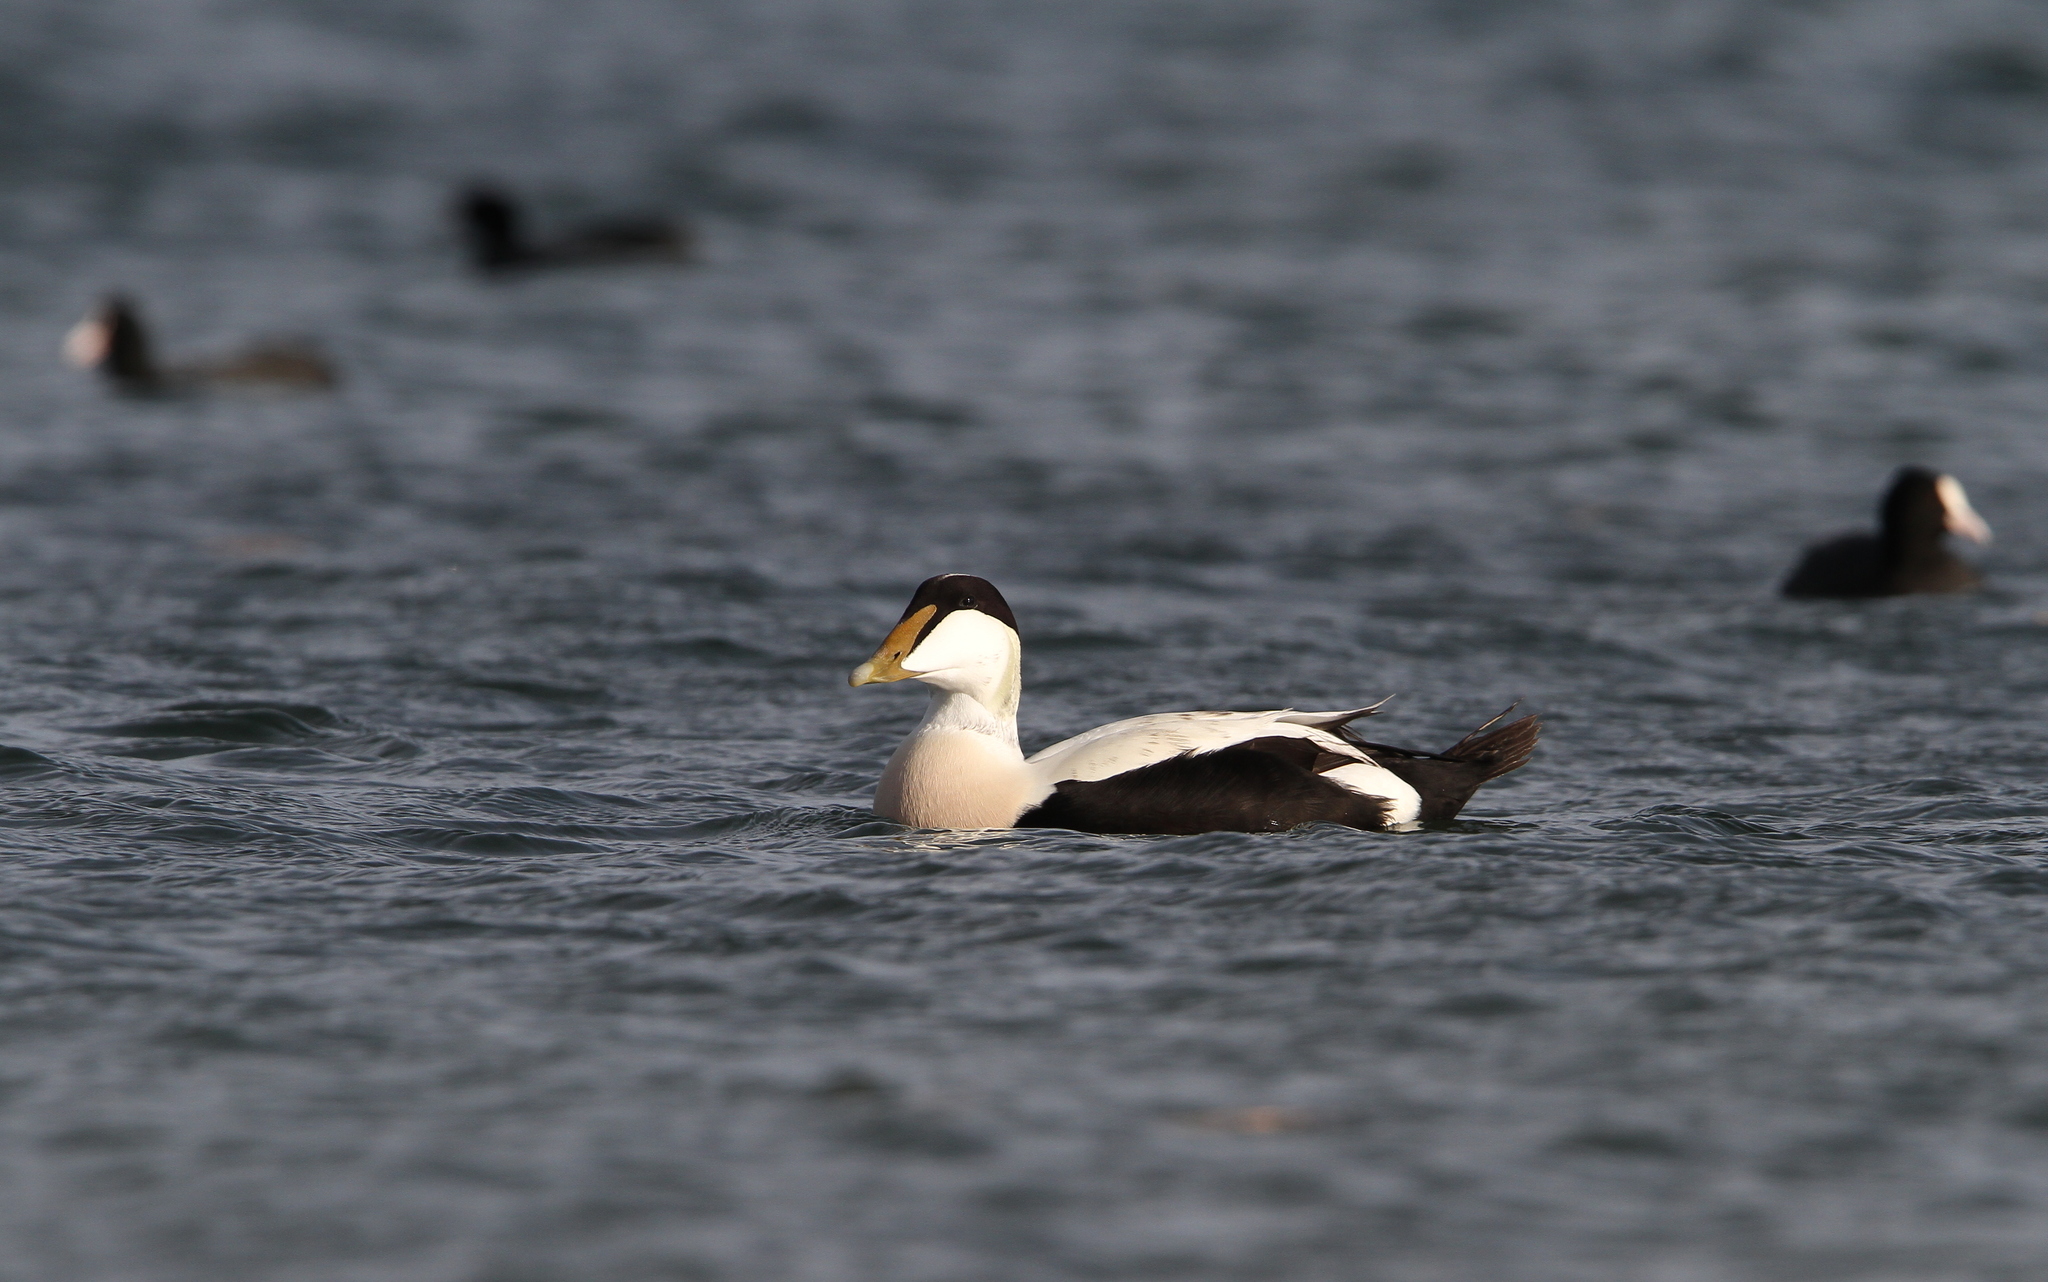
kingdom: Animalia
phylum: Chordata
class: Aves
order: Anseriformes
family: Anatidae
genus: Somateria
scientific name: Somateria mollissima
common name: Common eider
